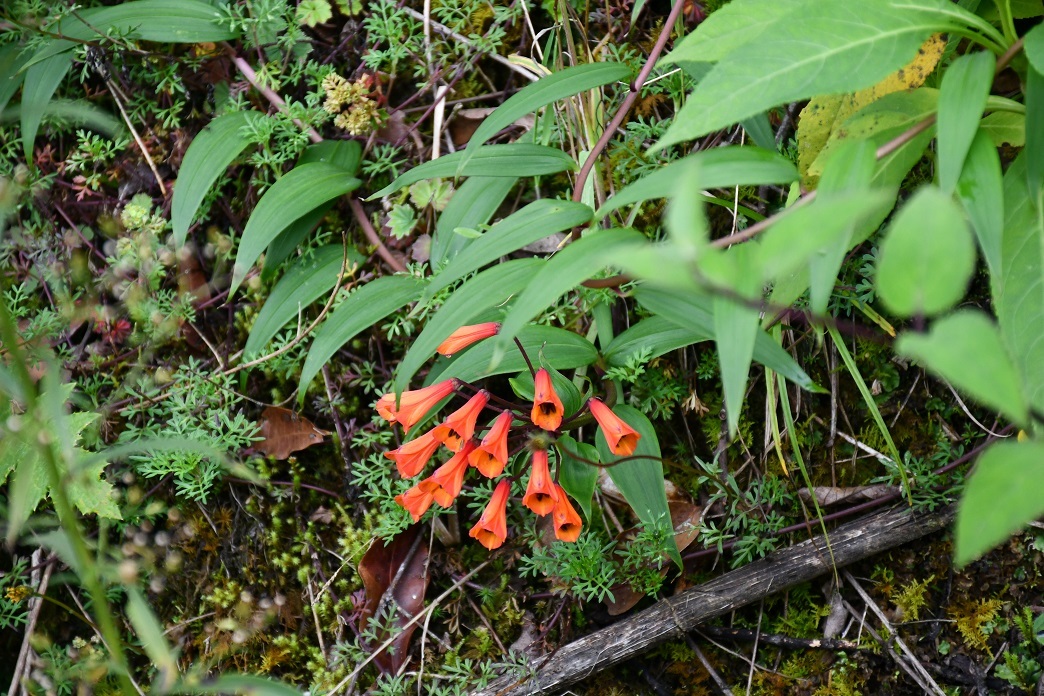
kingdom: Plantae
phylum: Tracheophyta
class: Liliopsida
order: Liliales
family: Alstroemeriaceae
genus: Bomarea
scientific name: Bomarea acutifolia
